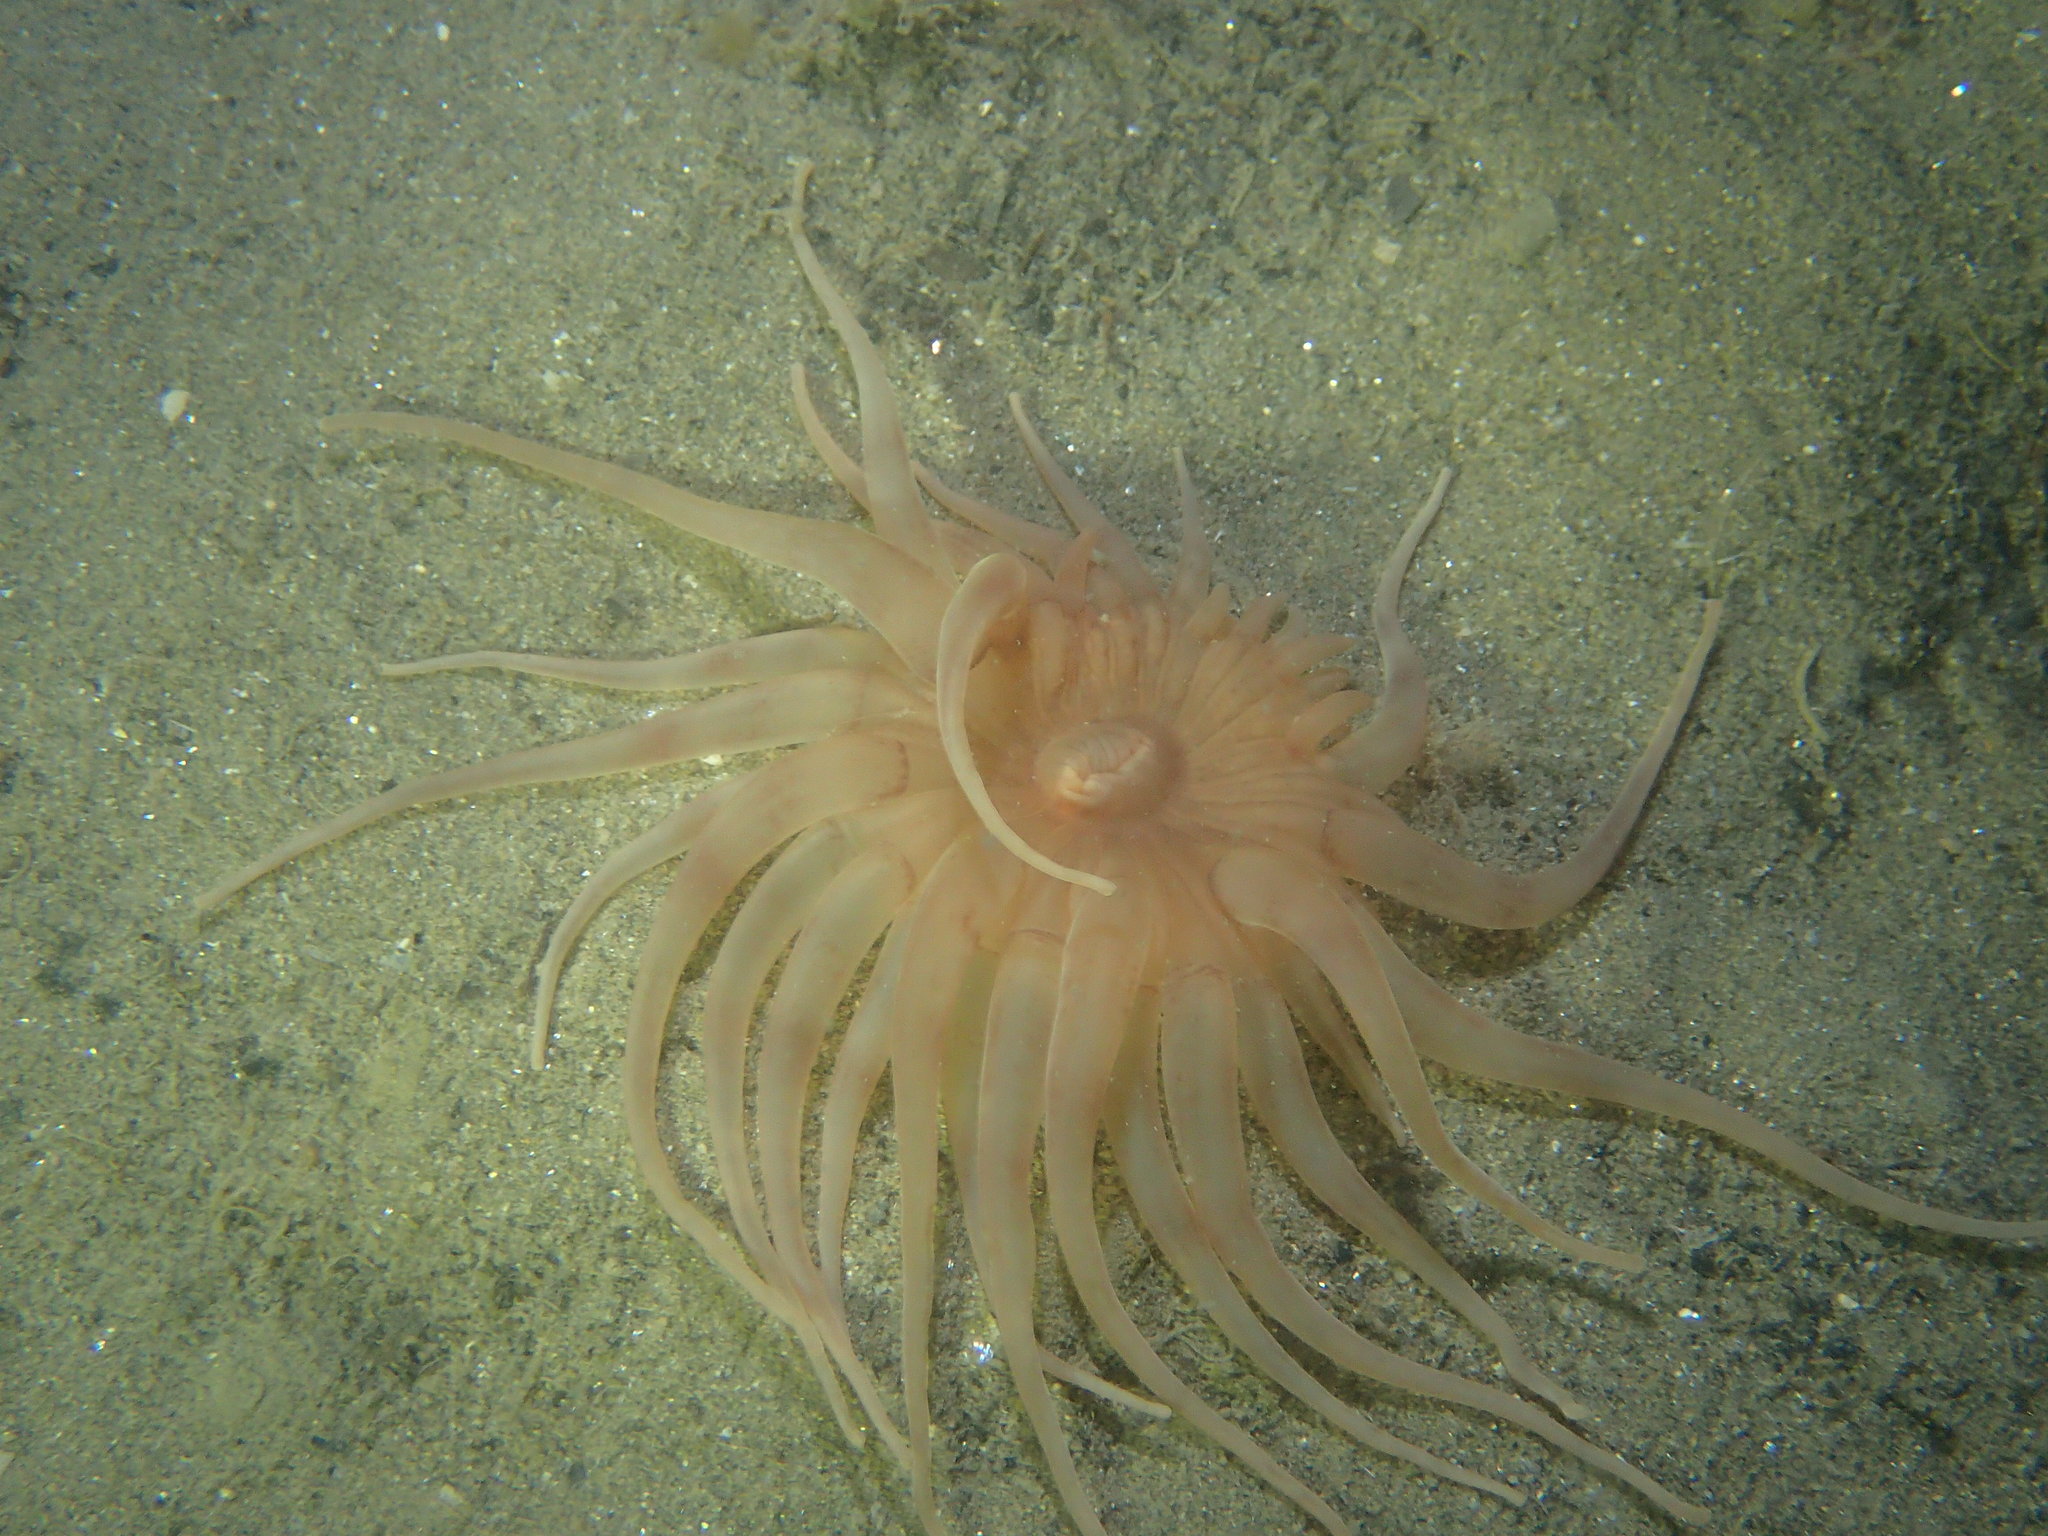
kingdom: Animalia
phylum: Cnidaria
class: Anthozoa
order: Actiniaria
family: Andresiidae
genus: Andresia
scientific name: Andresia partenopea
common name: Burrowing anemone
